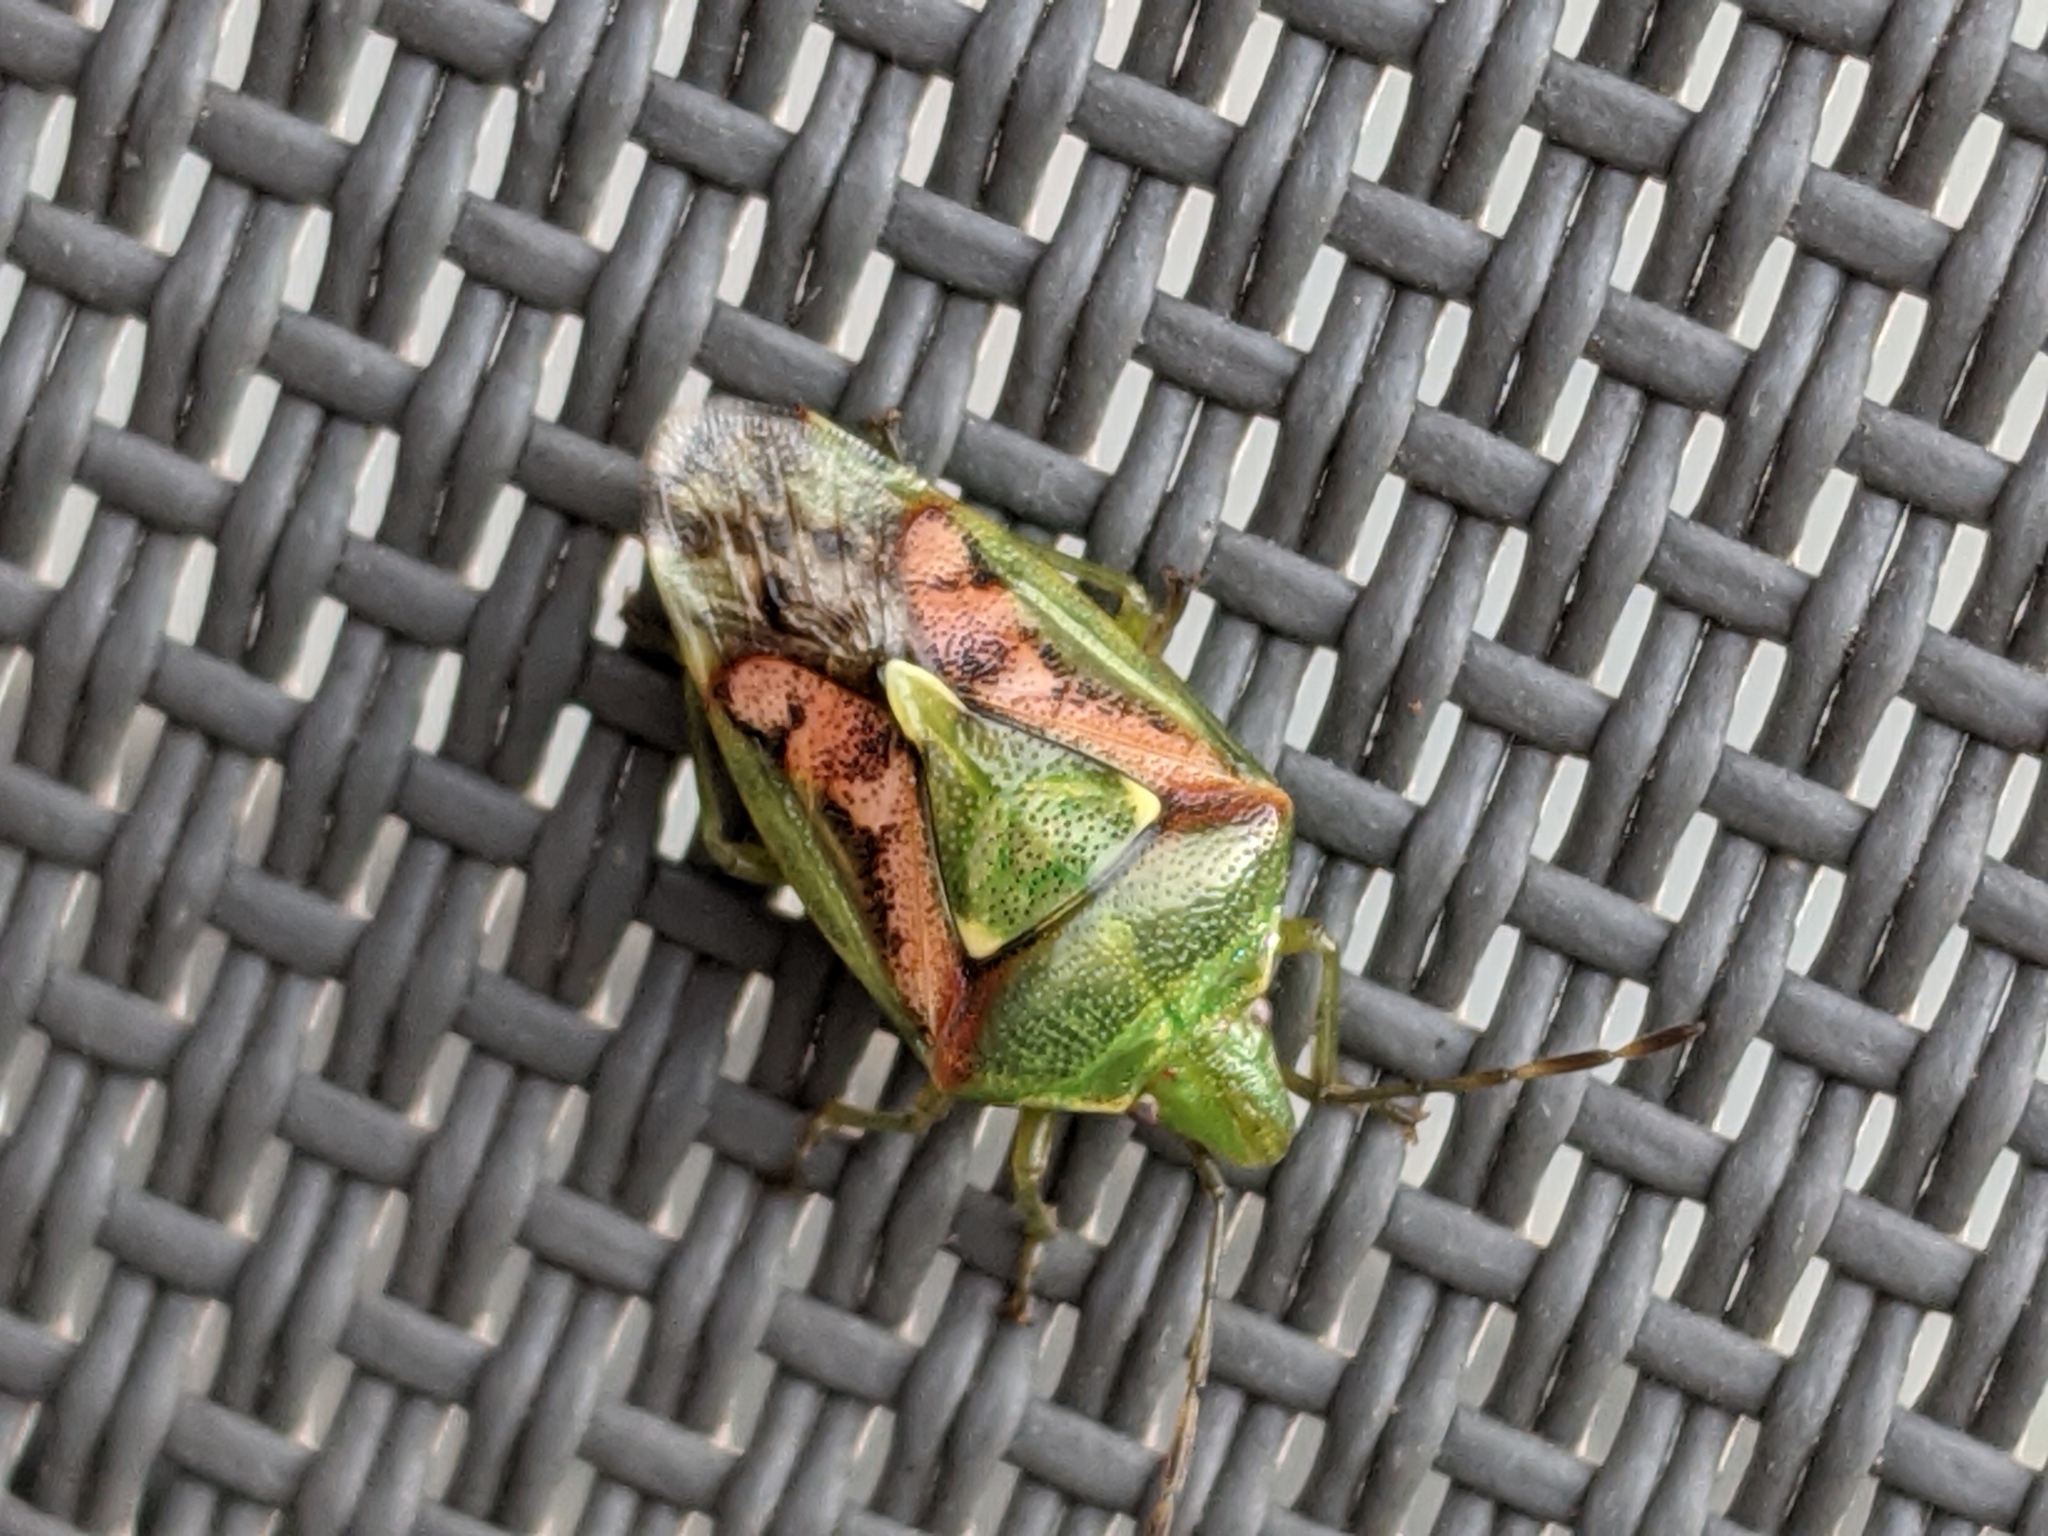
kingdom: Animalia
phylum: Arthropoda
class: Insecta
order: Hemiptera
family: Acanthosomatidae
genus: Cyphostethus
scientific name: Cyphostethus tristriatus
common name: Juniper shieldbug
